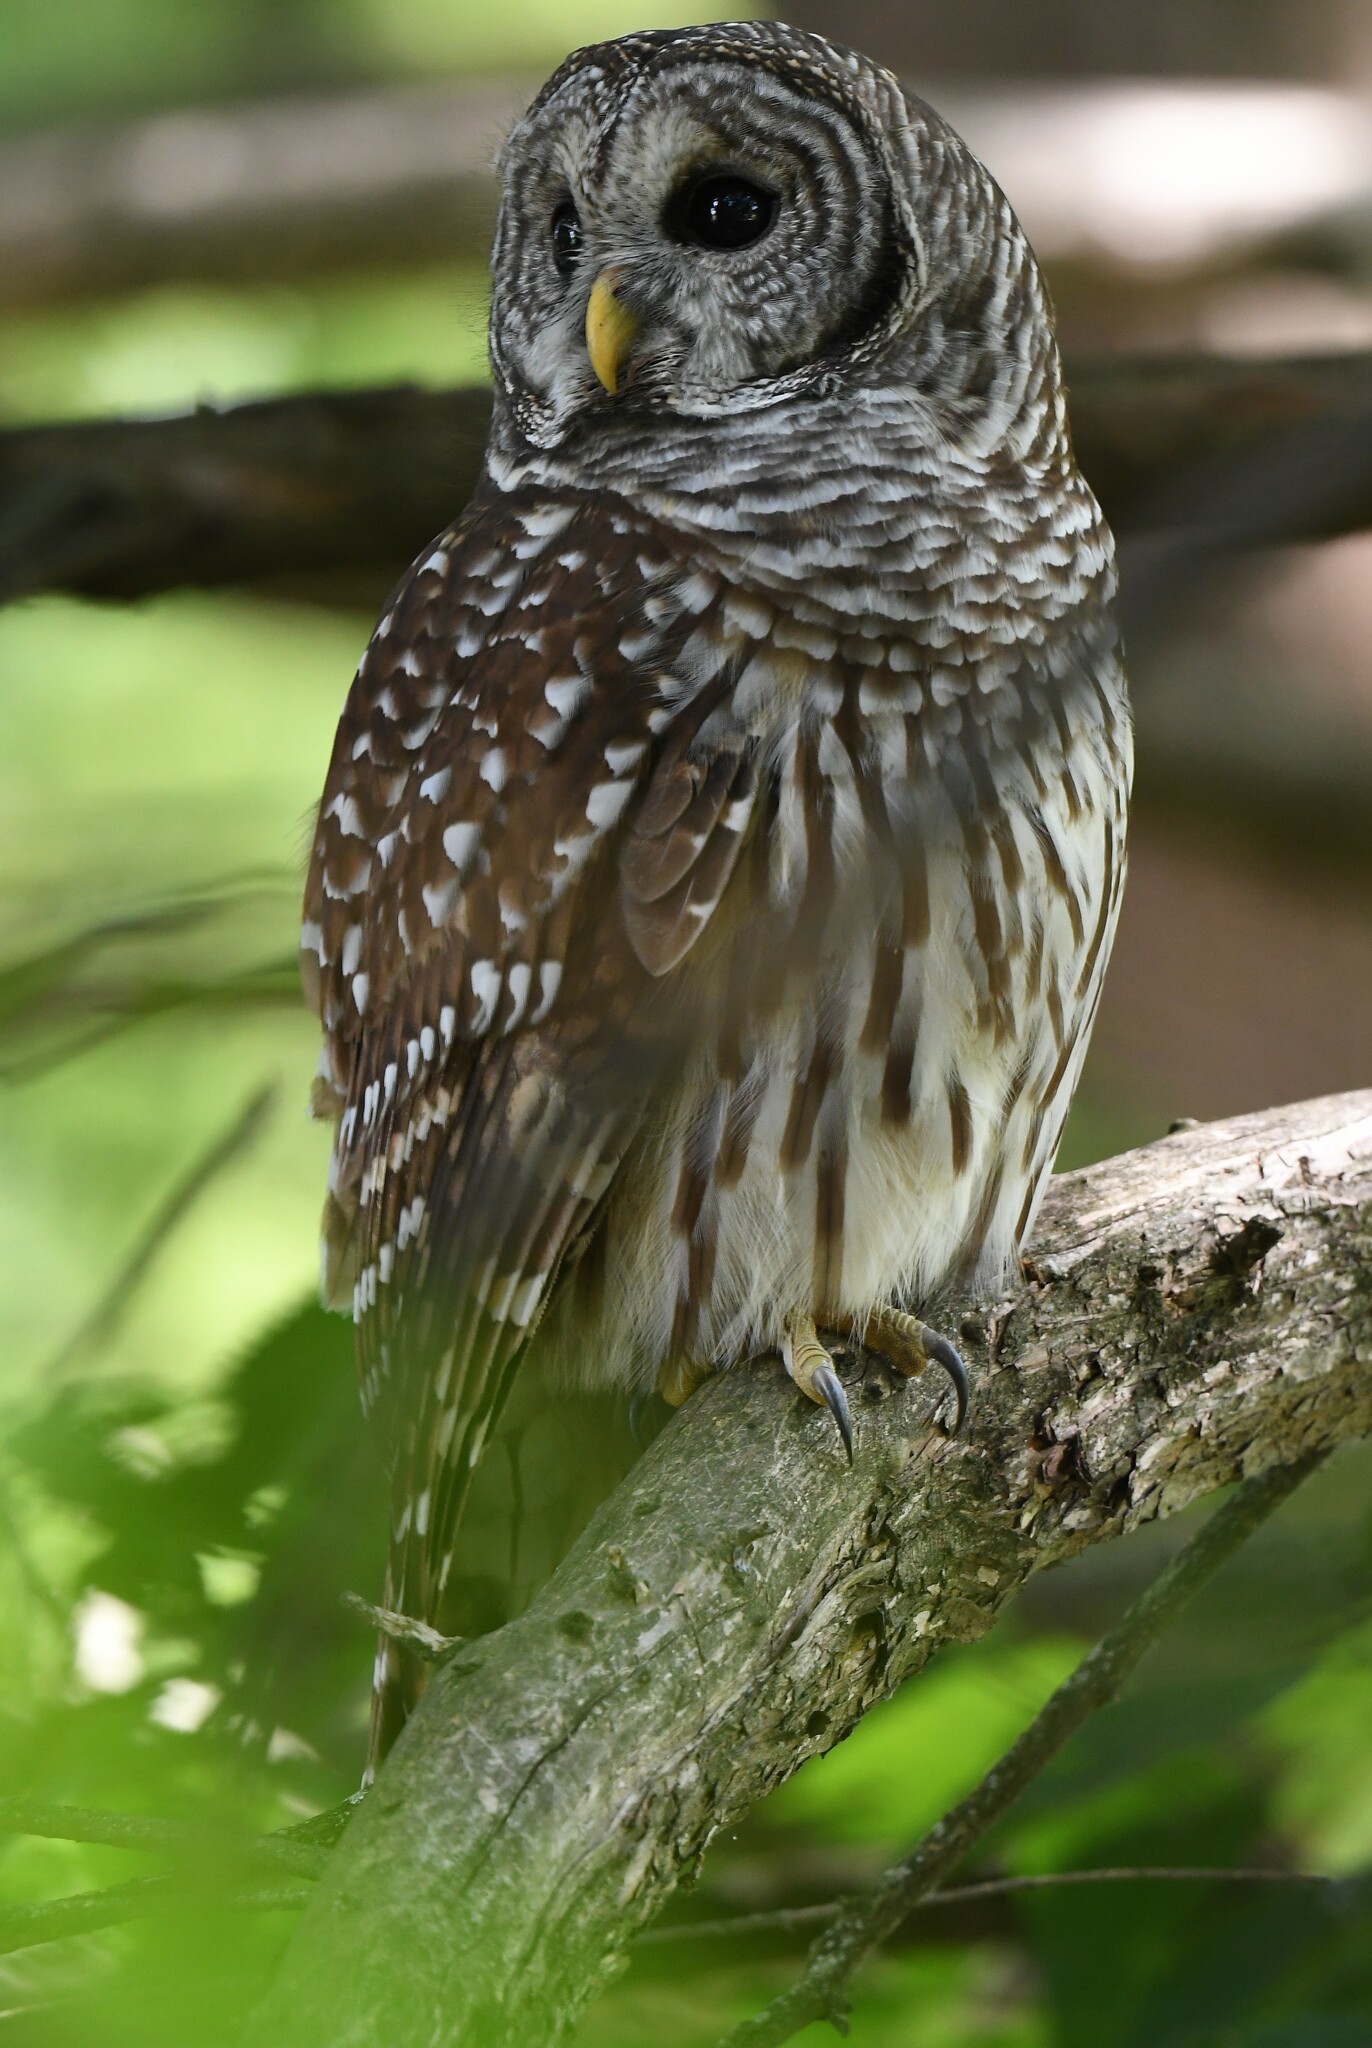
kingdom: Animalia
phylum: Chordata
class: Aves
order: Strigiformes
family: Strigidae
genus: Strix
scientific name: Strix varia
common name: Barred owl
